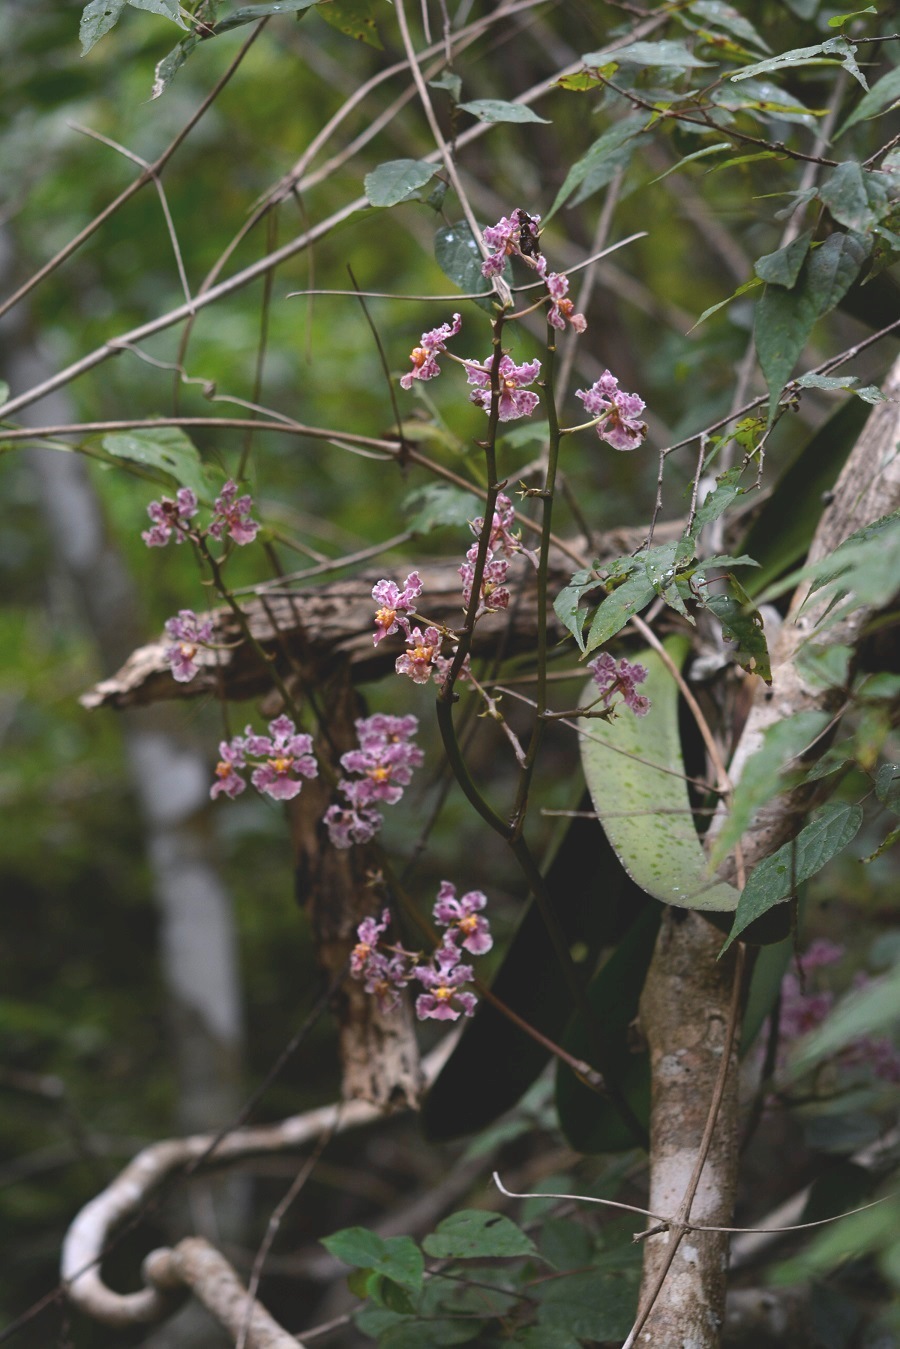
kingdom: Plantae
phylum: Tracheophyta
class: Liliopsida
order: Asparagales
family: Orchidaceae
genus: Trichocentrum
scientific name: Trichocentrum andreanum
